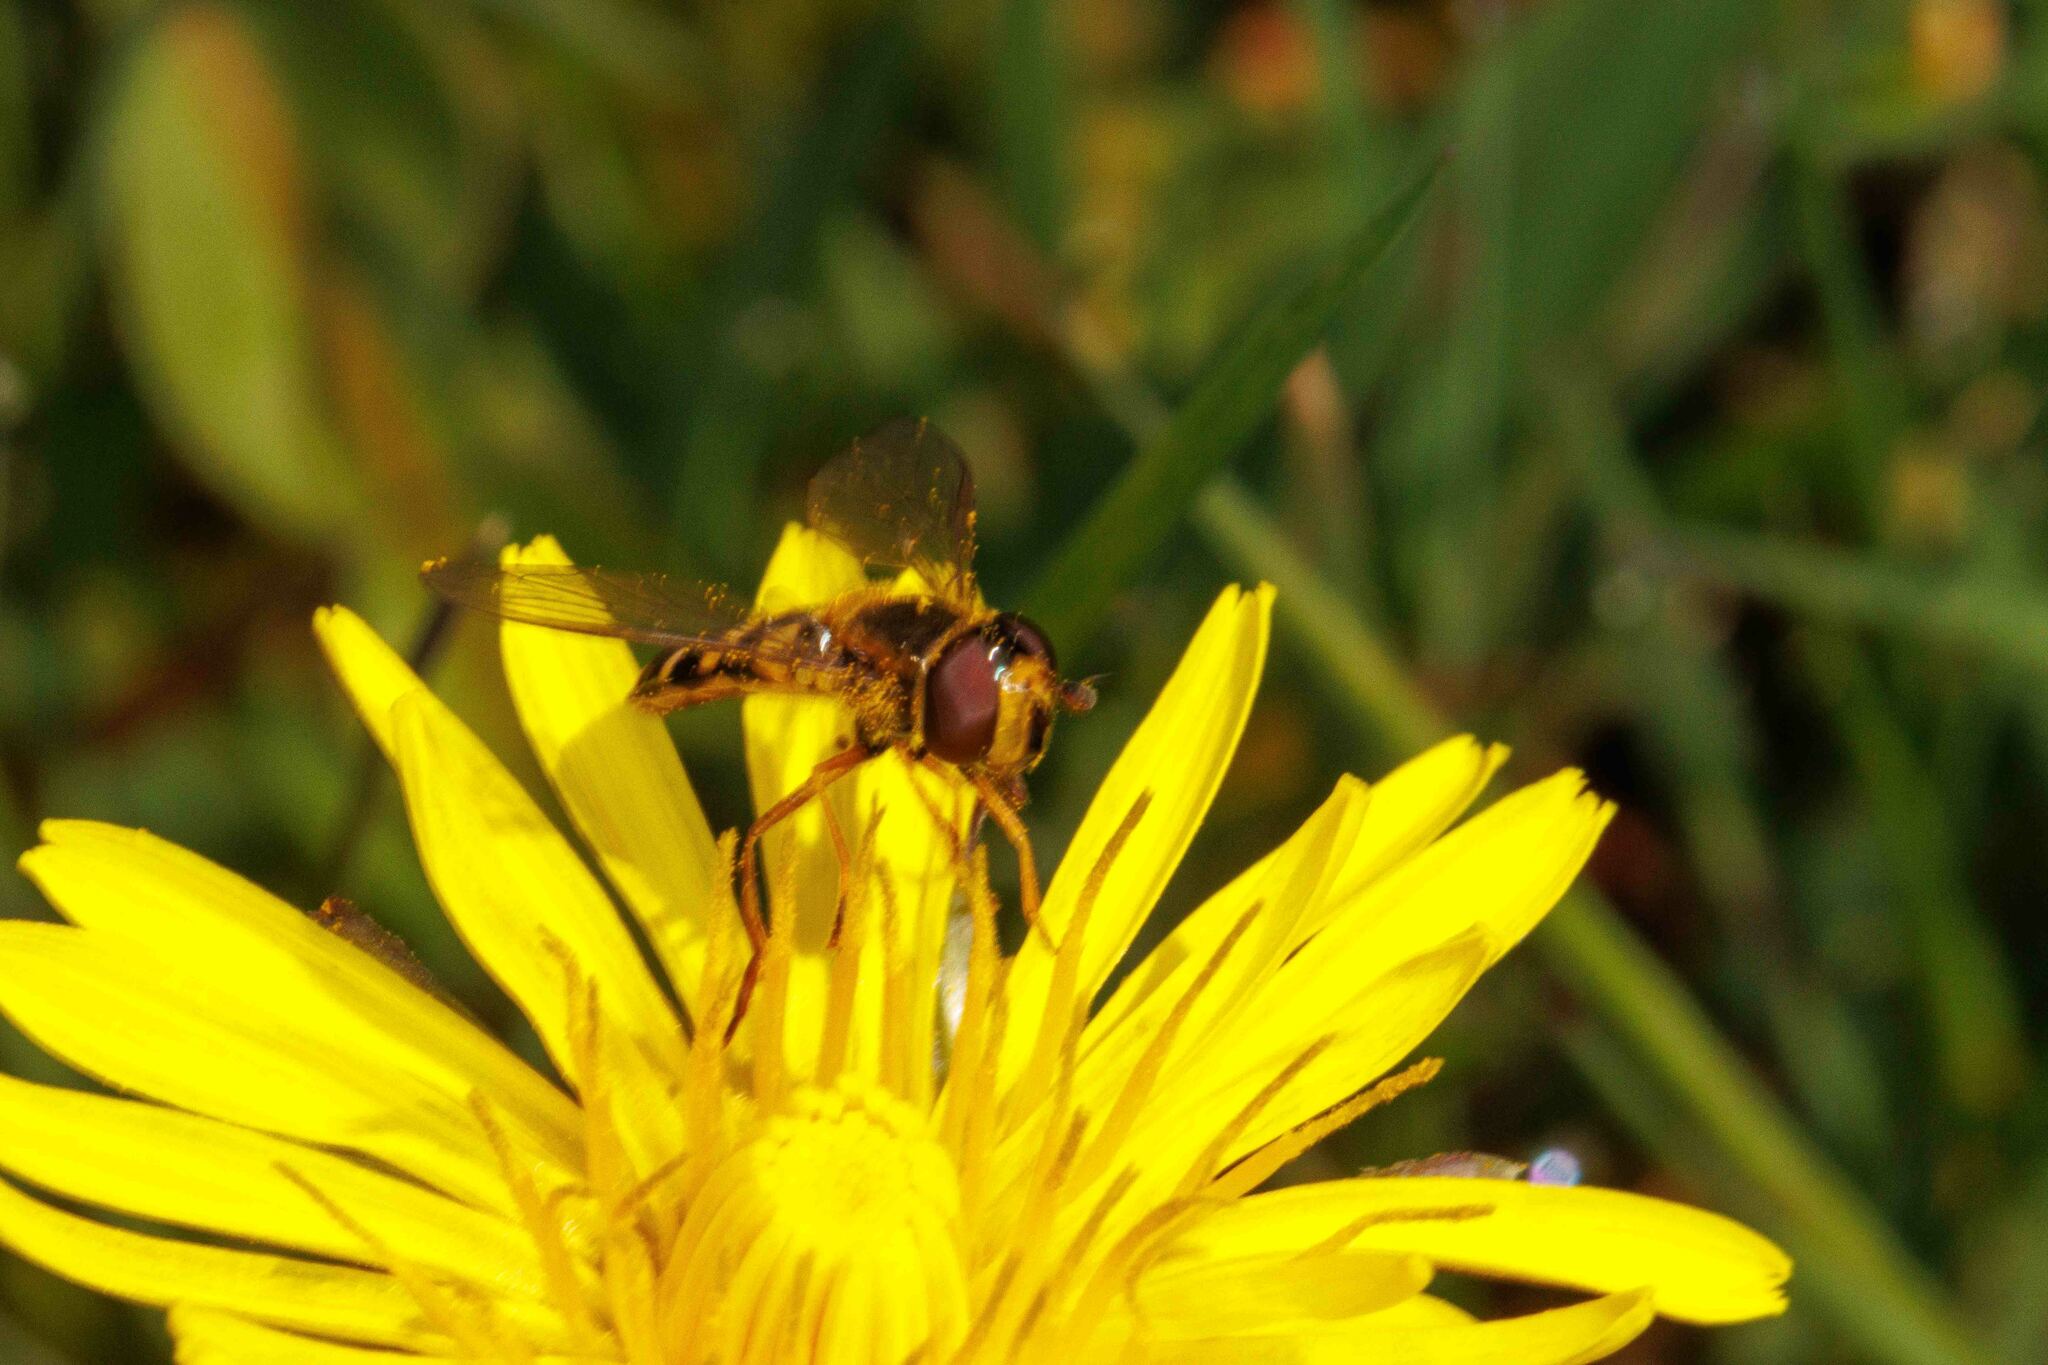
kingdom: Animalia
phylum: Arthropoda
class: Insecta
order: Diptera
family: Syrphidae
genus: Eupeodes
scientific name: Eupeodes latifasciatus
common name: Variable aphideater
